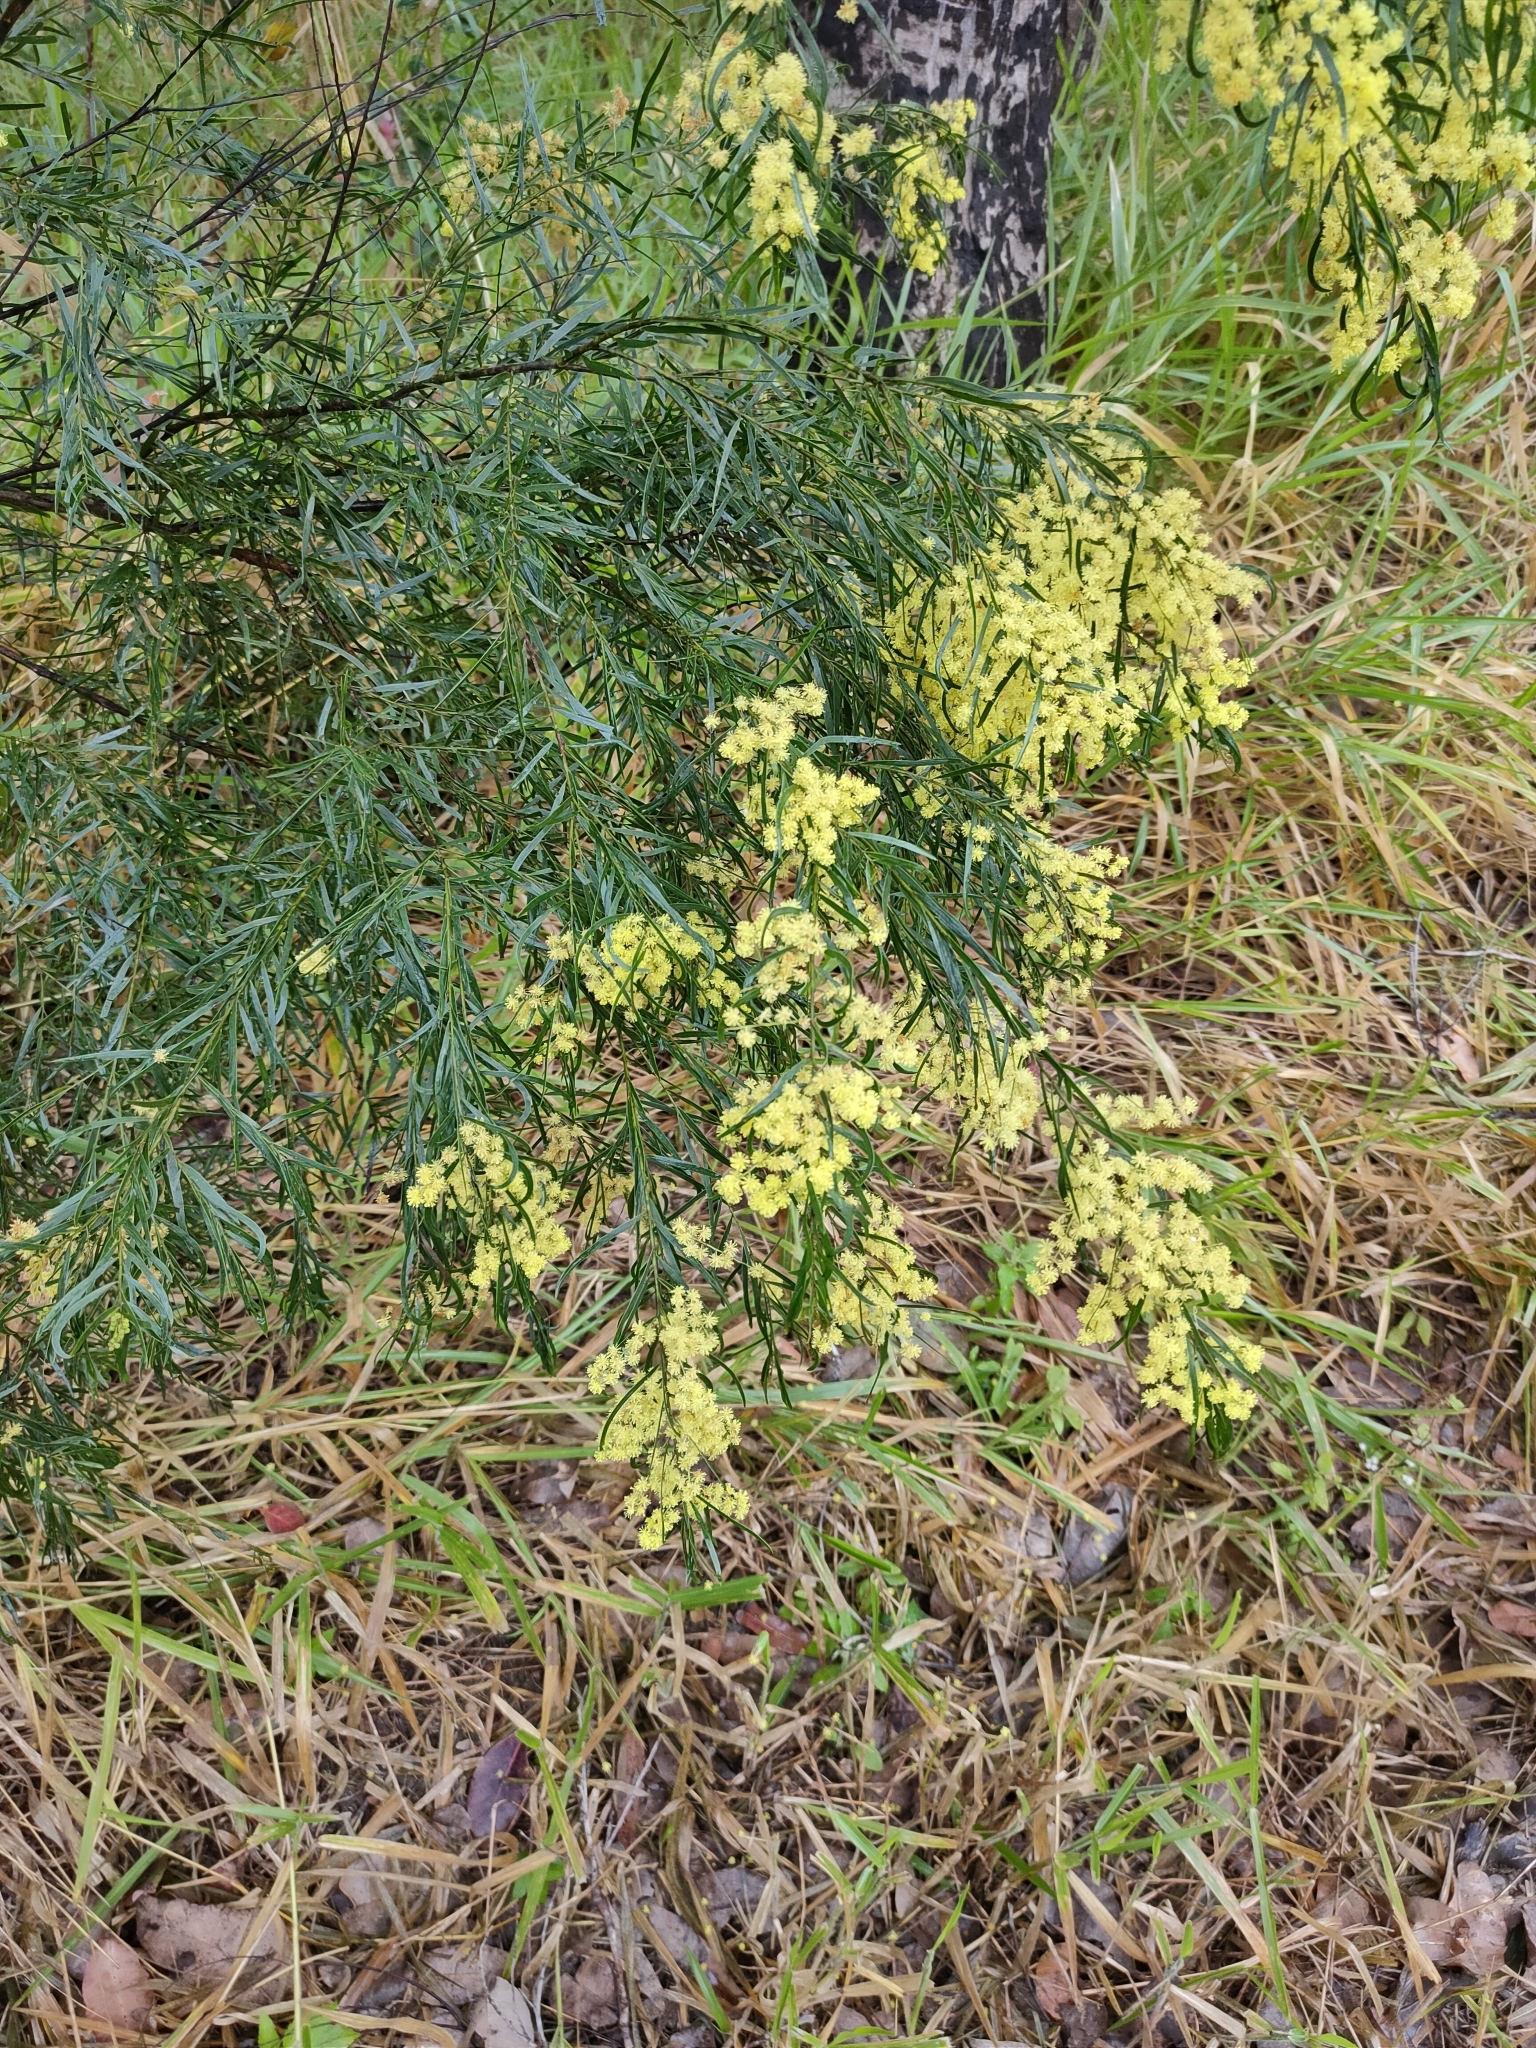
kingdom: Plantae
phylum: Tracheophyta
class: Magnoliopsida
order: Fabales
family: Fabaceae
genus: Acacia
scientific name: Acacia fimbriata
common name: Brisbane golden wattle
